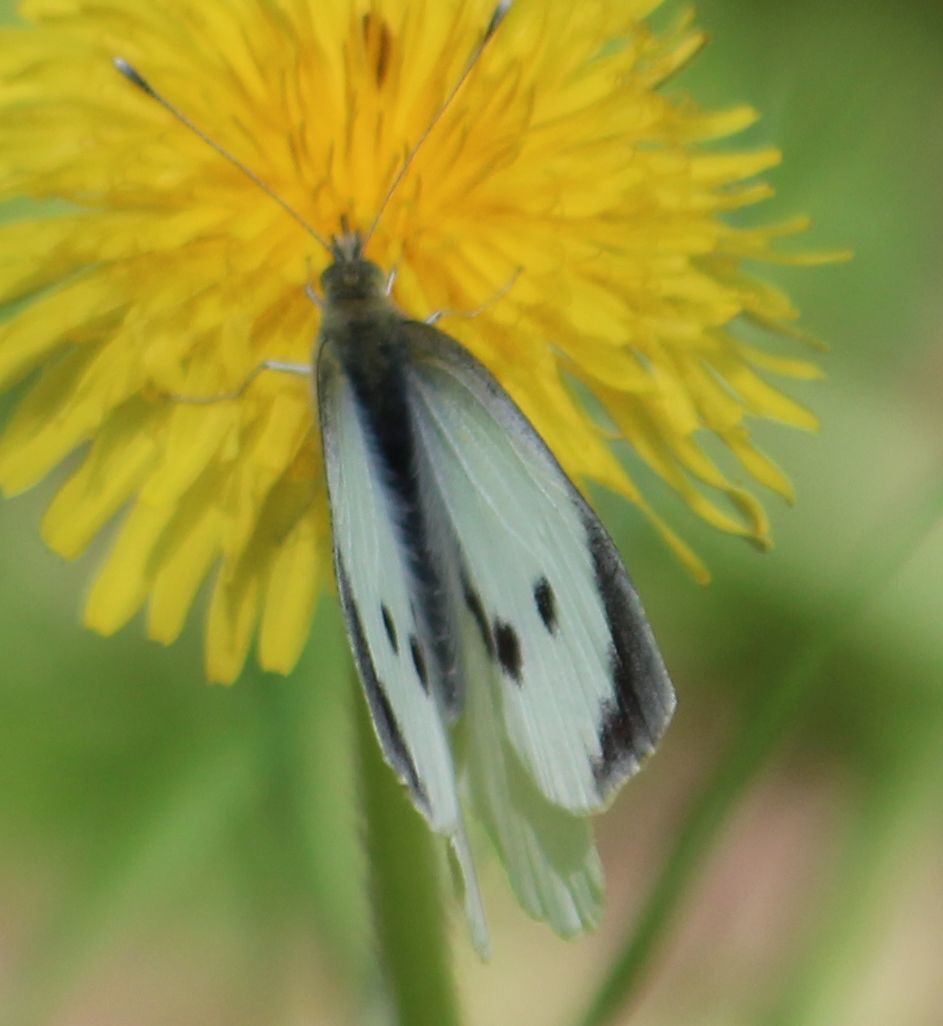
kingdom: Animalia
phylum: Arthropoda
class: Insecta
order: Lepidoptera
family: Pieridae
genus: Pieris
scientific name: Pieris brassicae
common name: Large white
